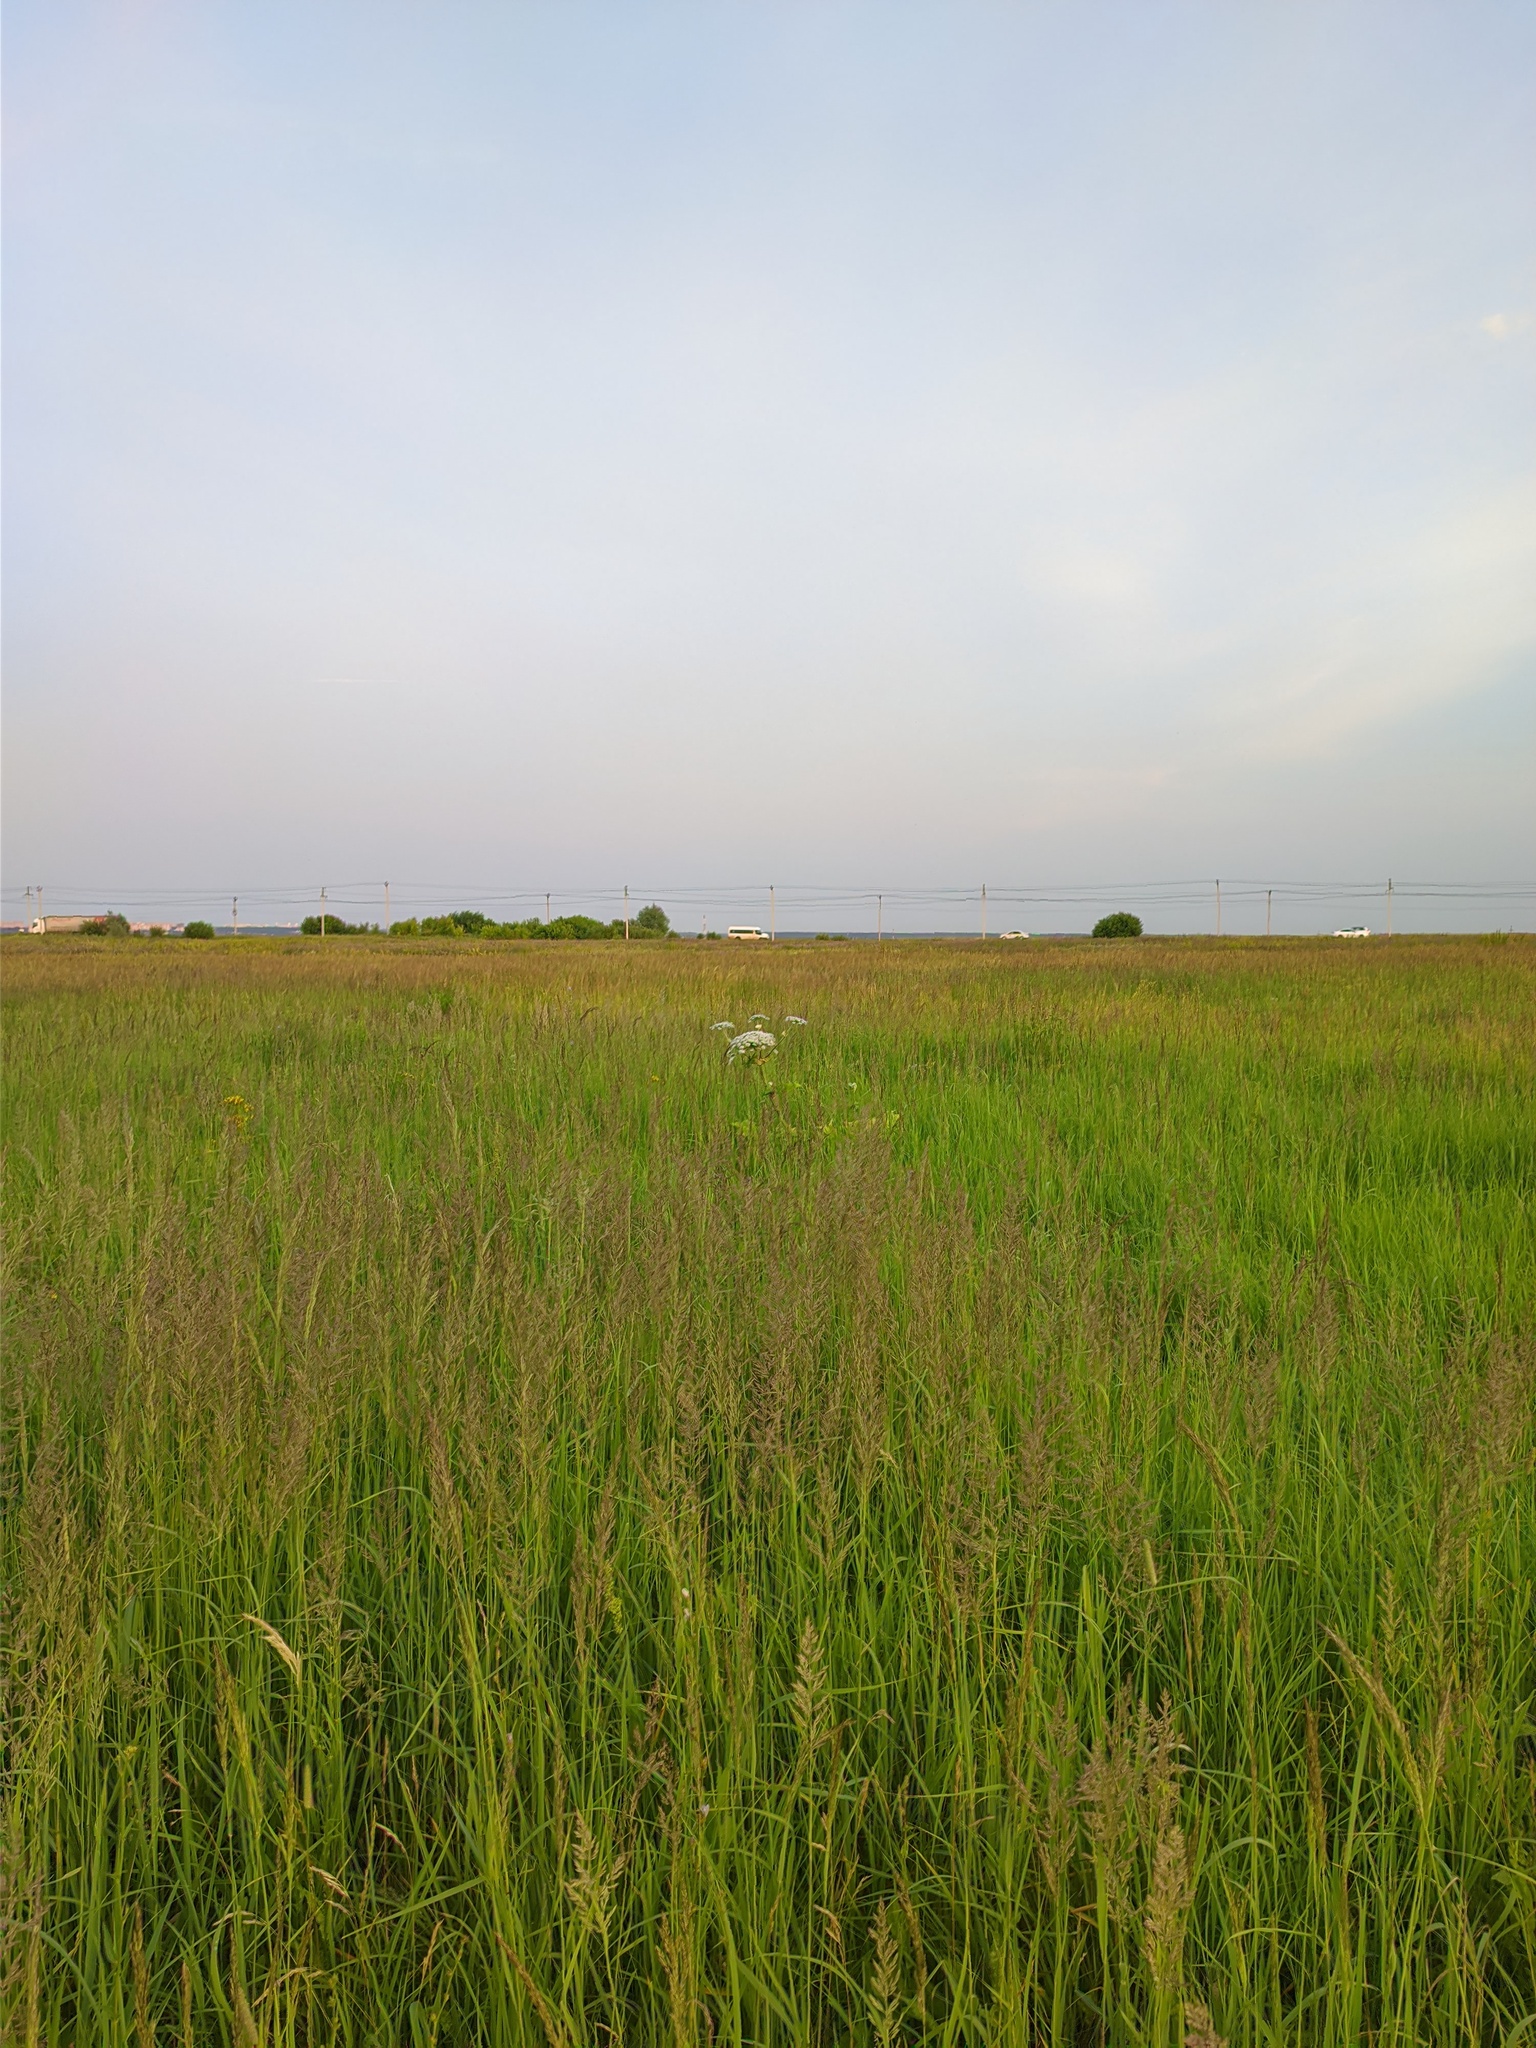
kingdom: Plantae
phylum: Tracheophyta
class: Magnoliopsida
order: Apiales
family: Apiaceae
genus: Heracleum
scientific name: Heracleum sosnowskyi
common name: Sosnowsky's hogweed
